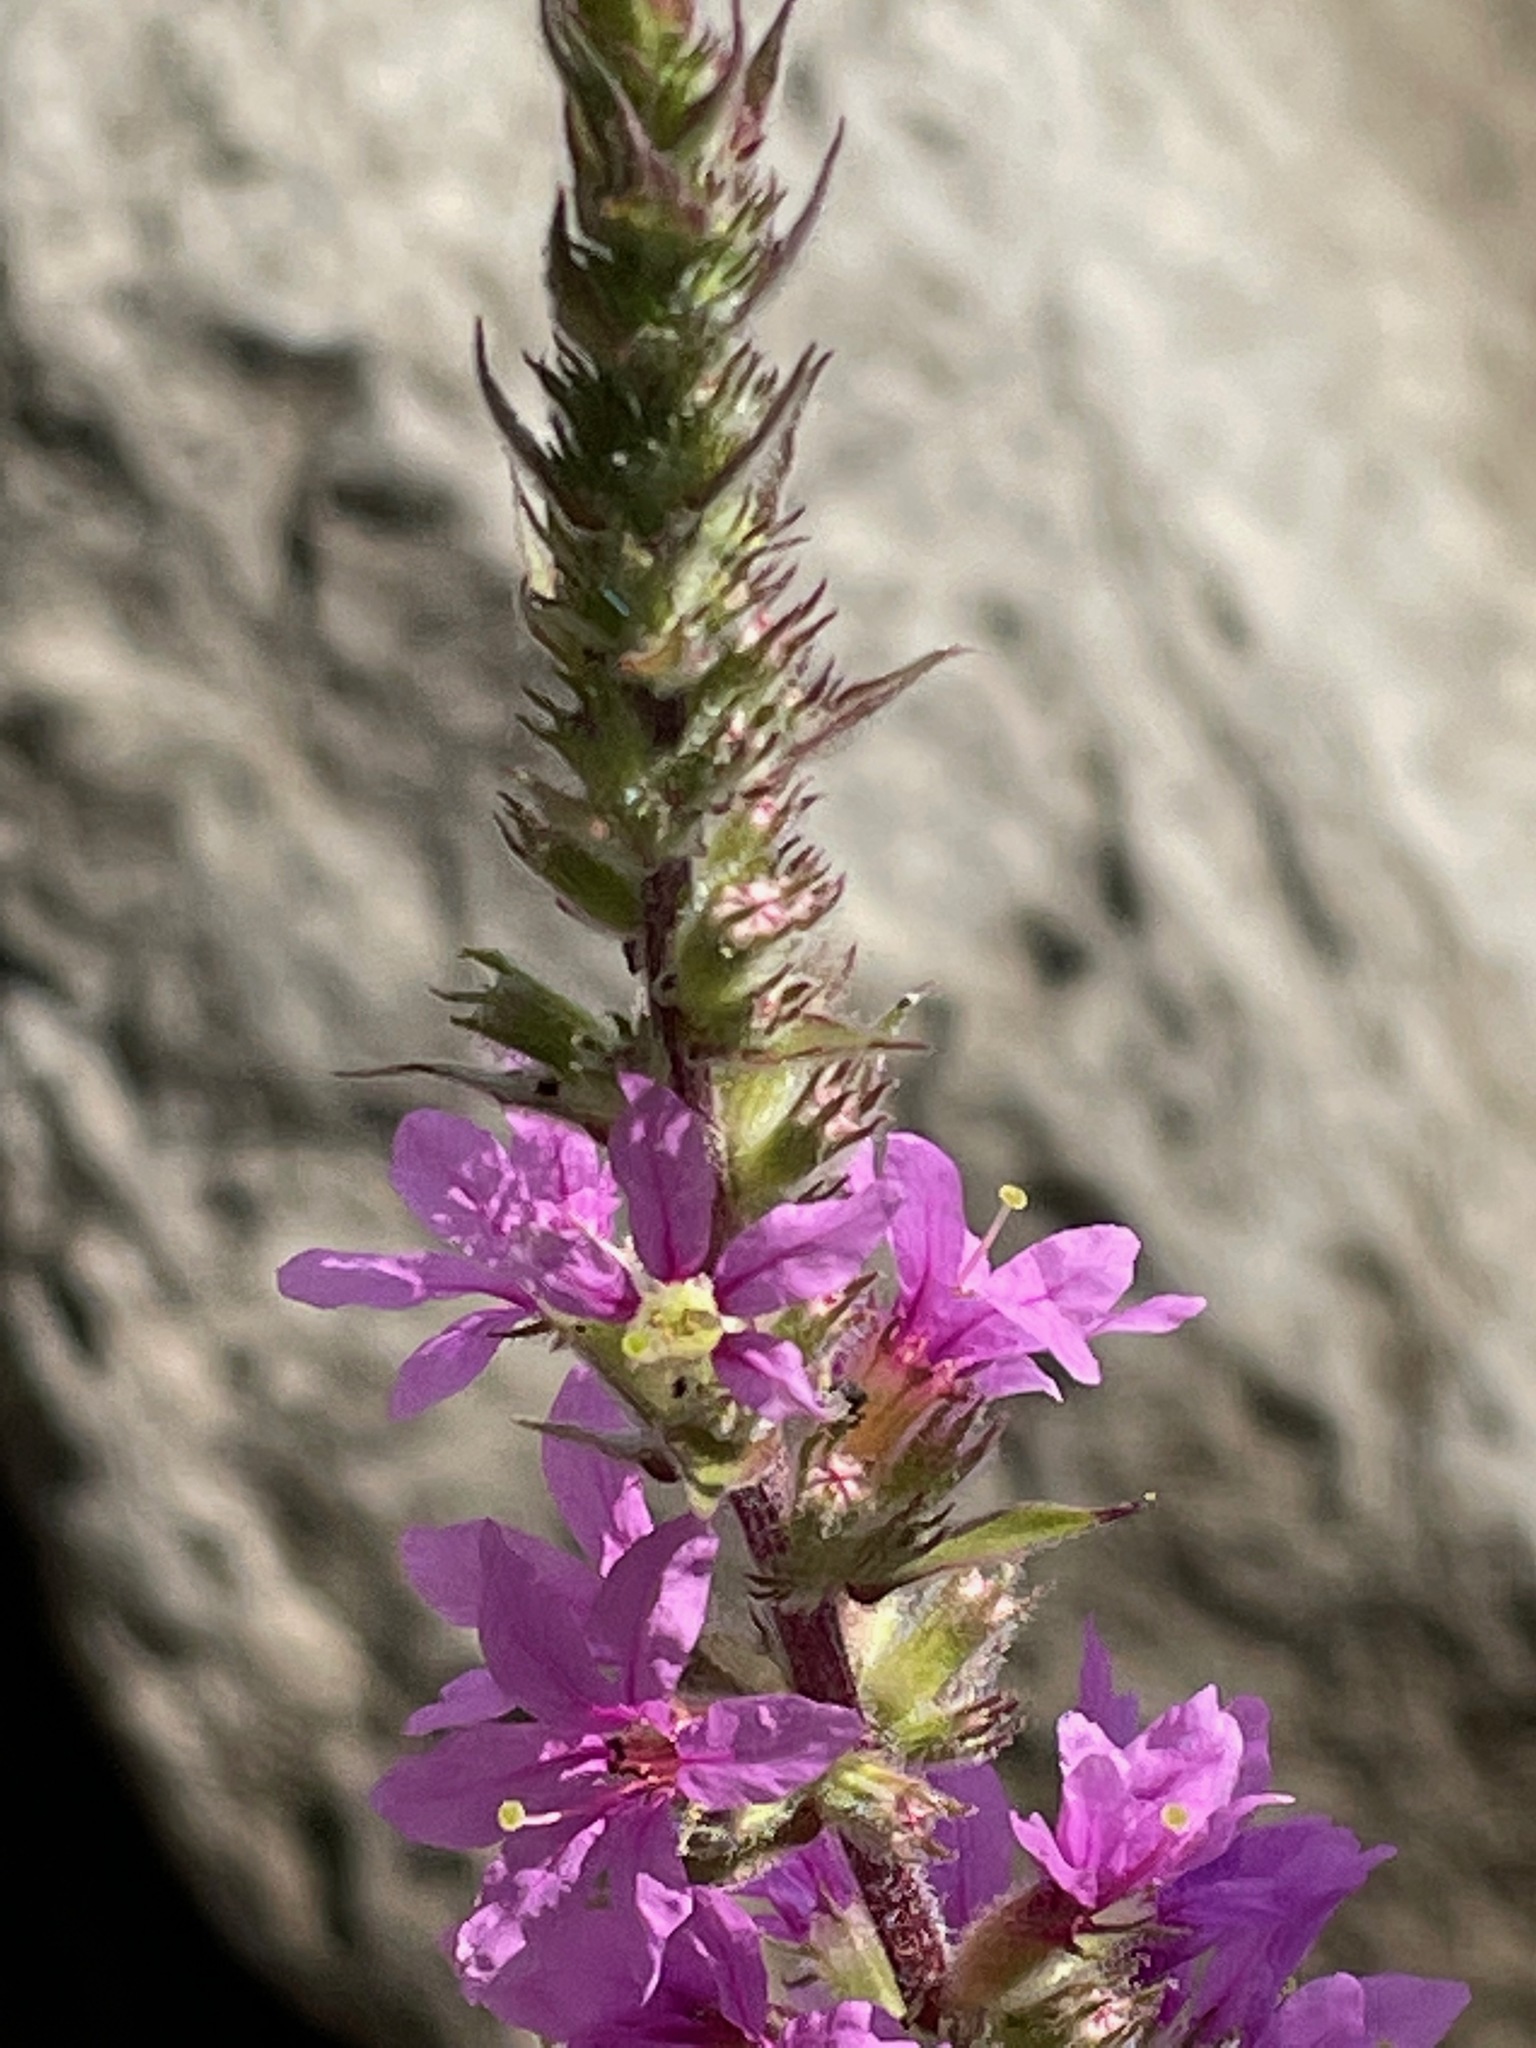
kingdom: Plantae
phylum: Tracheophyta
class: Magnoliopsida
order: Myrtales
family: Lythraceae
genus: Lythrum
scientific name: Lythrum salicaria
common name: Purple loosestrife
